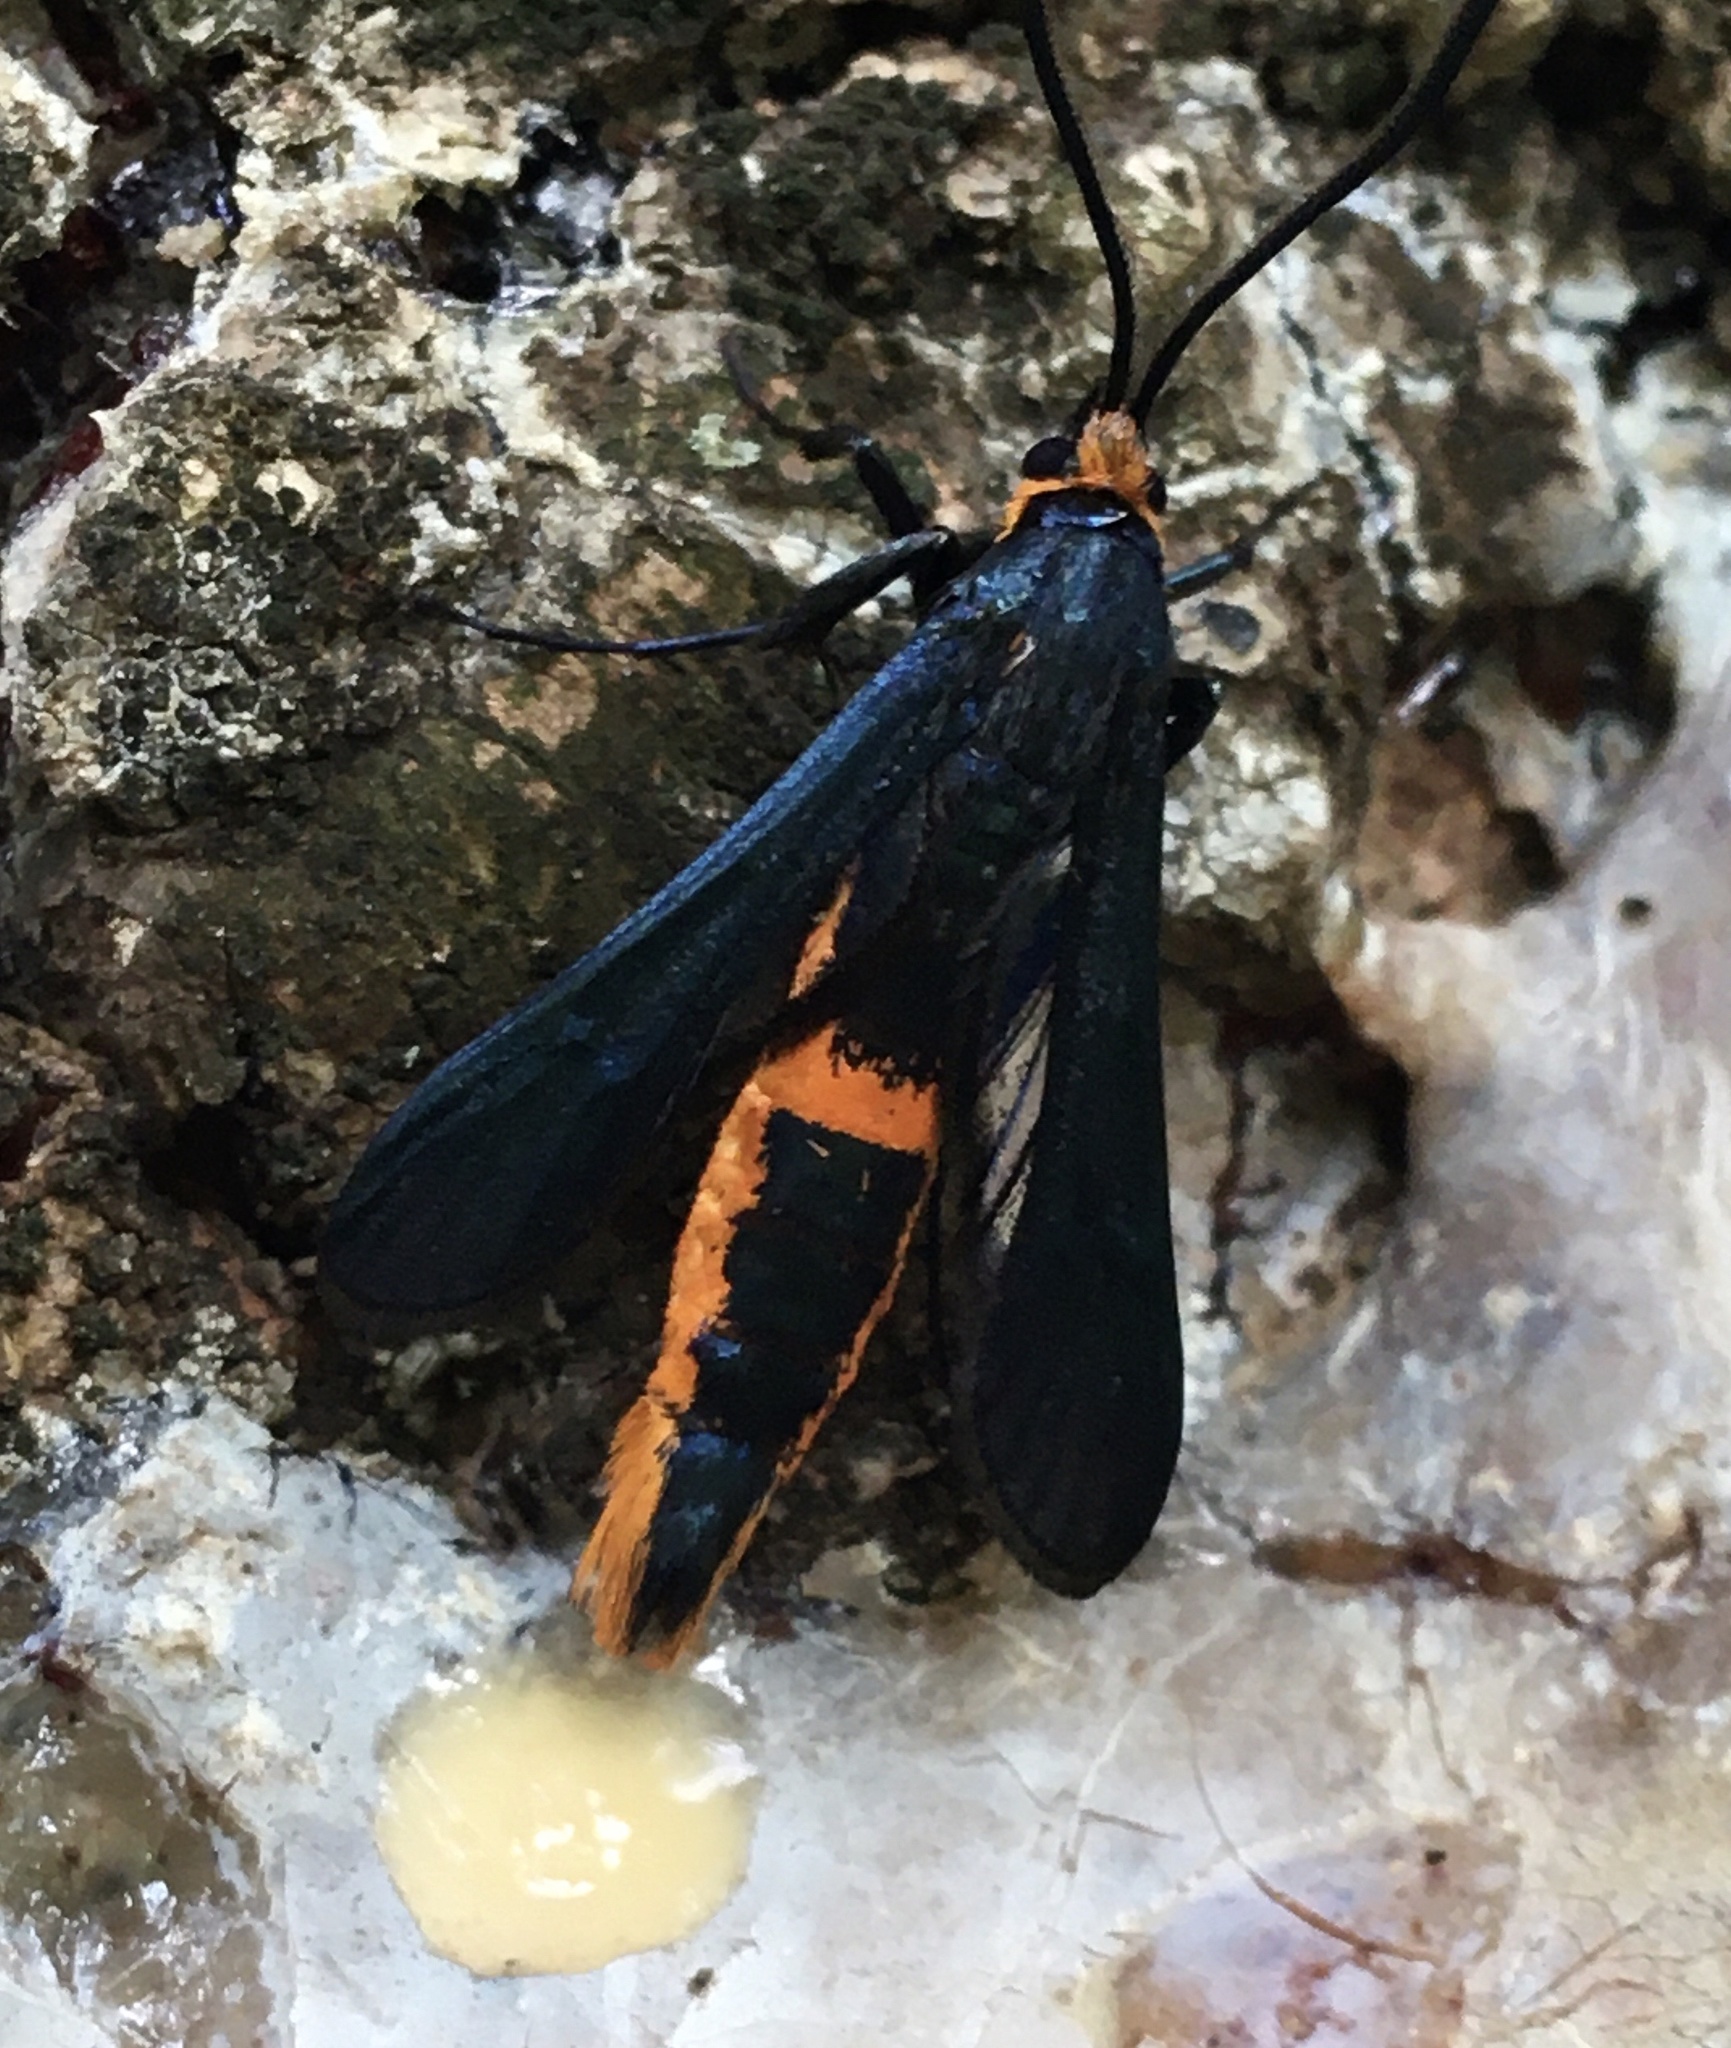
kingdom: Animalia
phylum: Arthropoda
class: Insecta
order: Lepidoptera
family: Sesiidae
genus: Synanthedon
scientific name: Synanthedon pini
